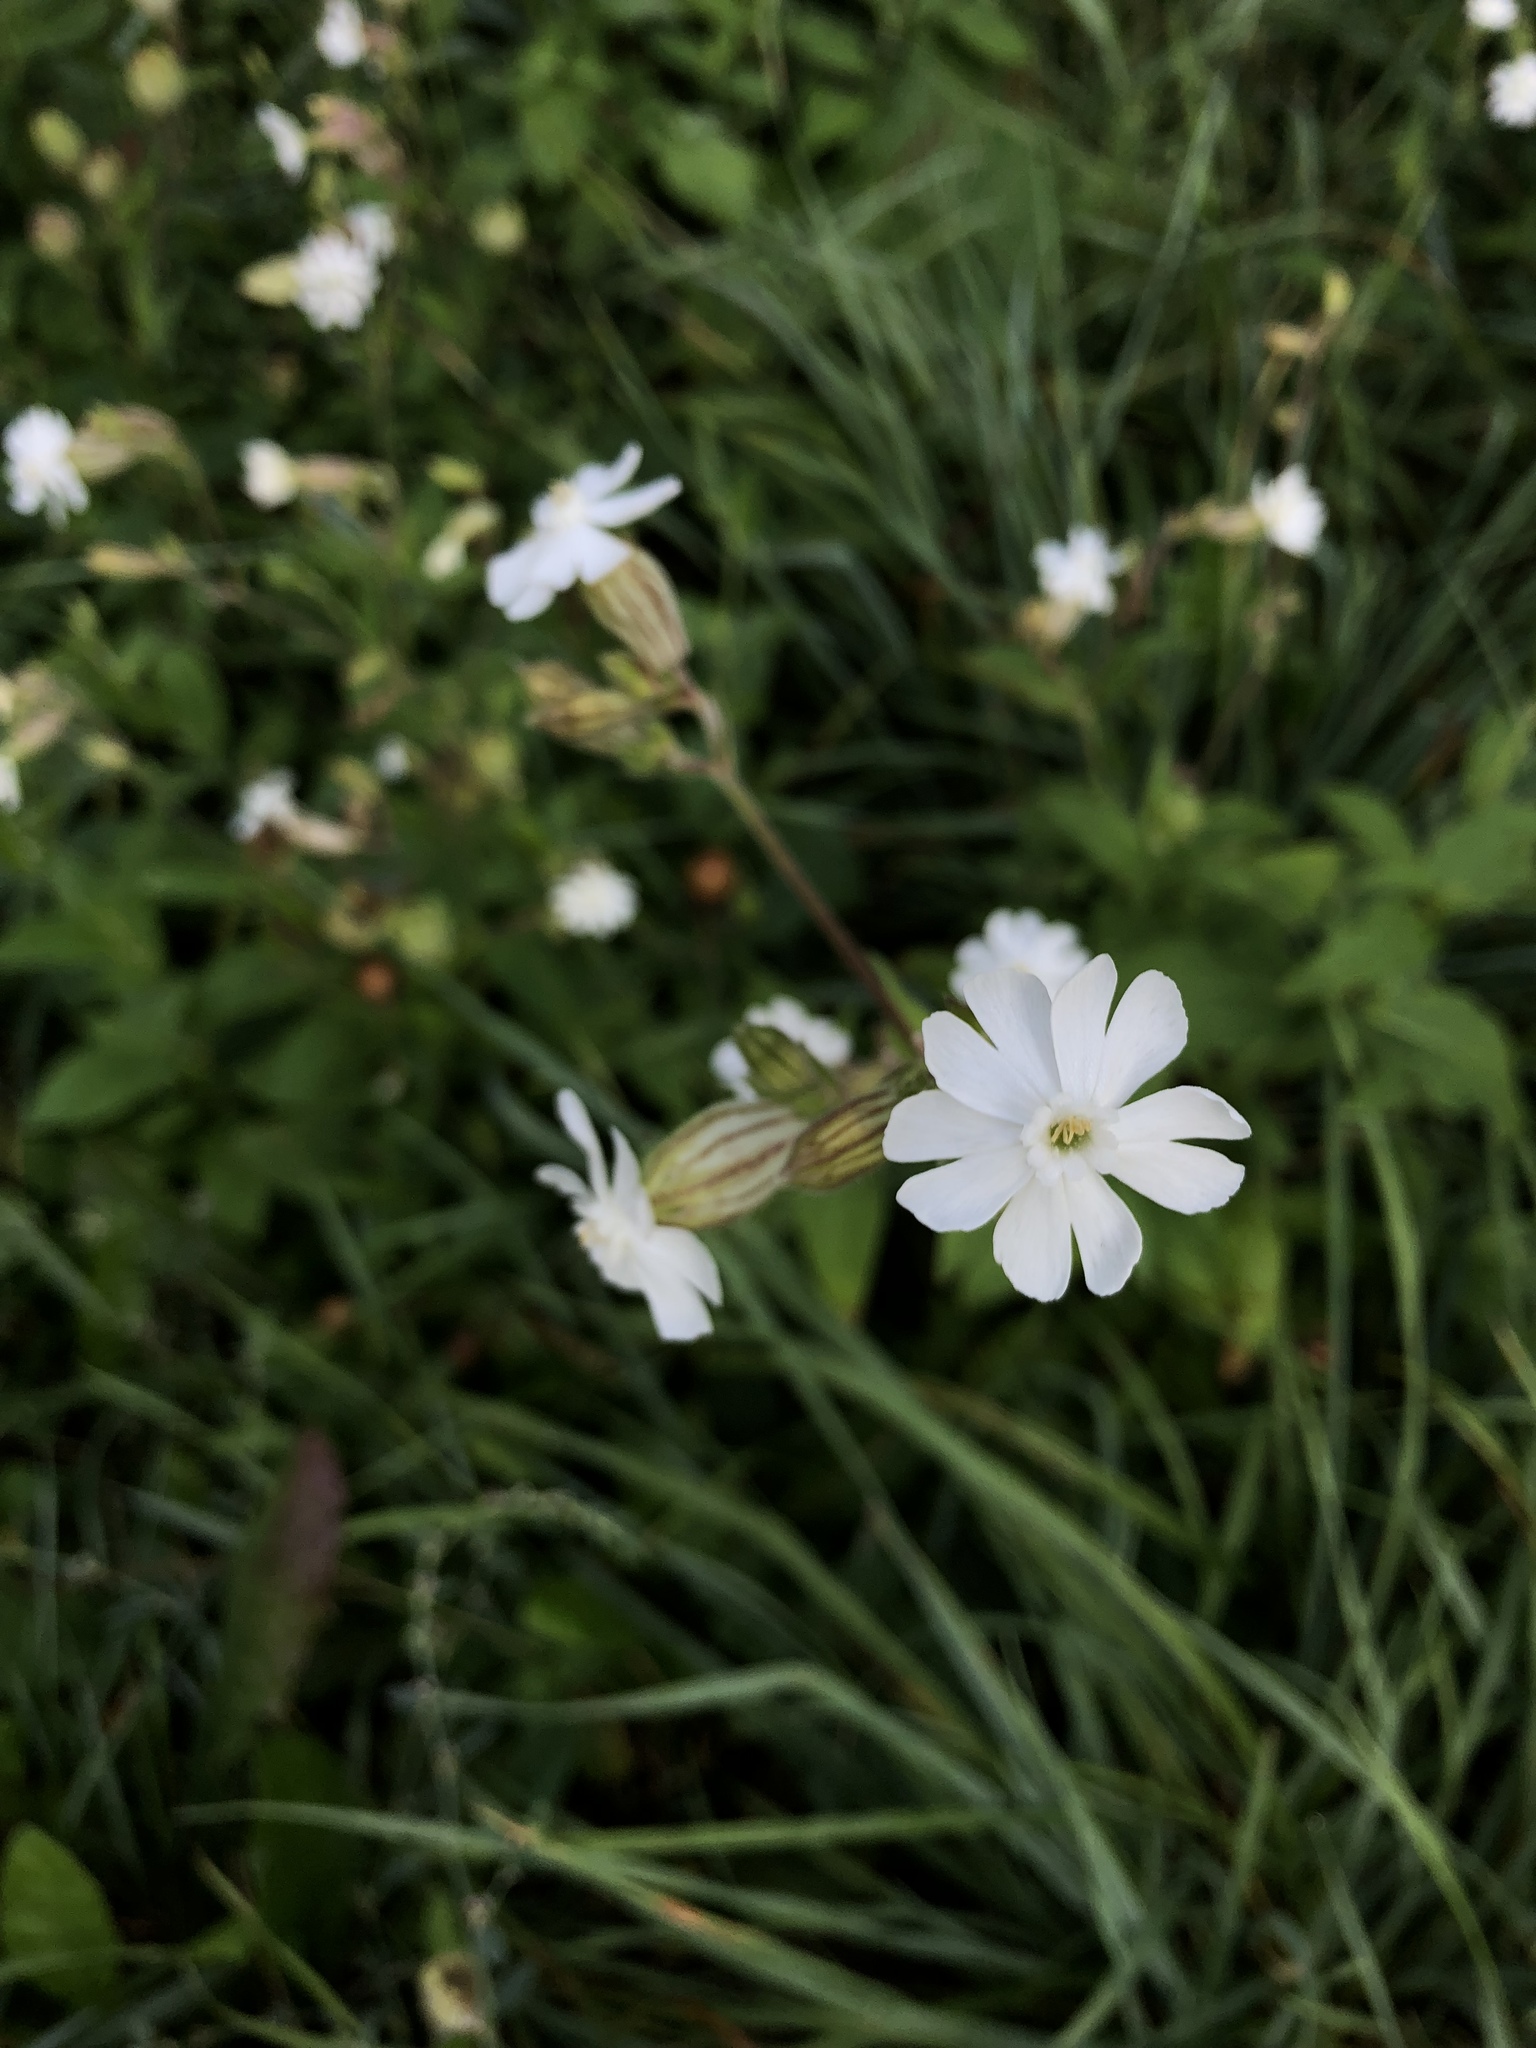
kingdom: Plantae
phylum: Tracheophyta
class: Magnoliopsida
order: Caryophyllales
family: Caryophyllaceae
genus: Silene
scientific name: Silene latifolia
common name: White campion
